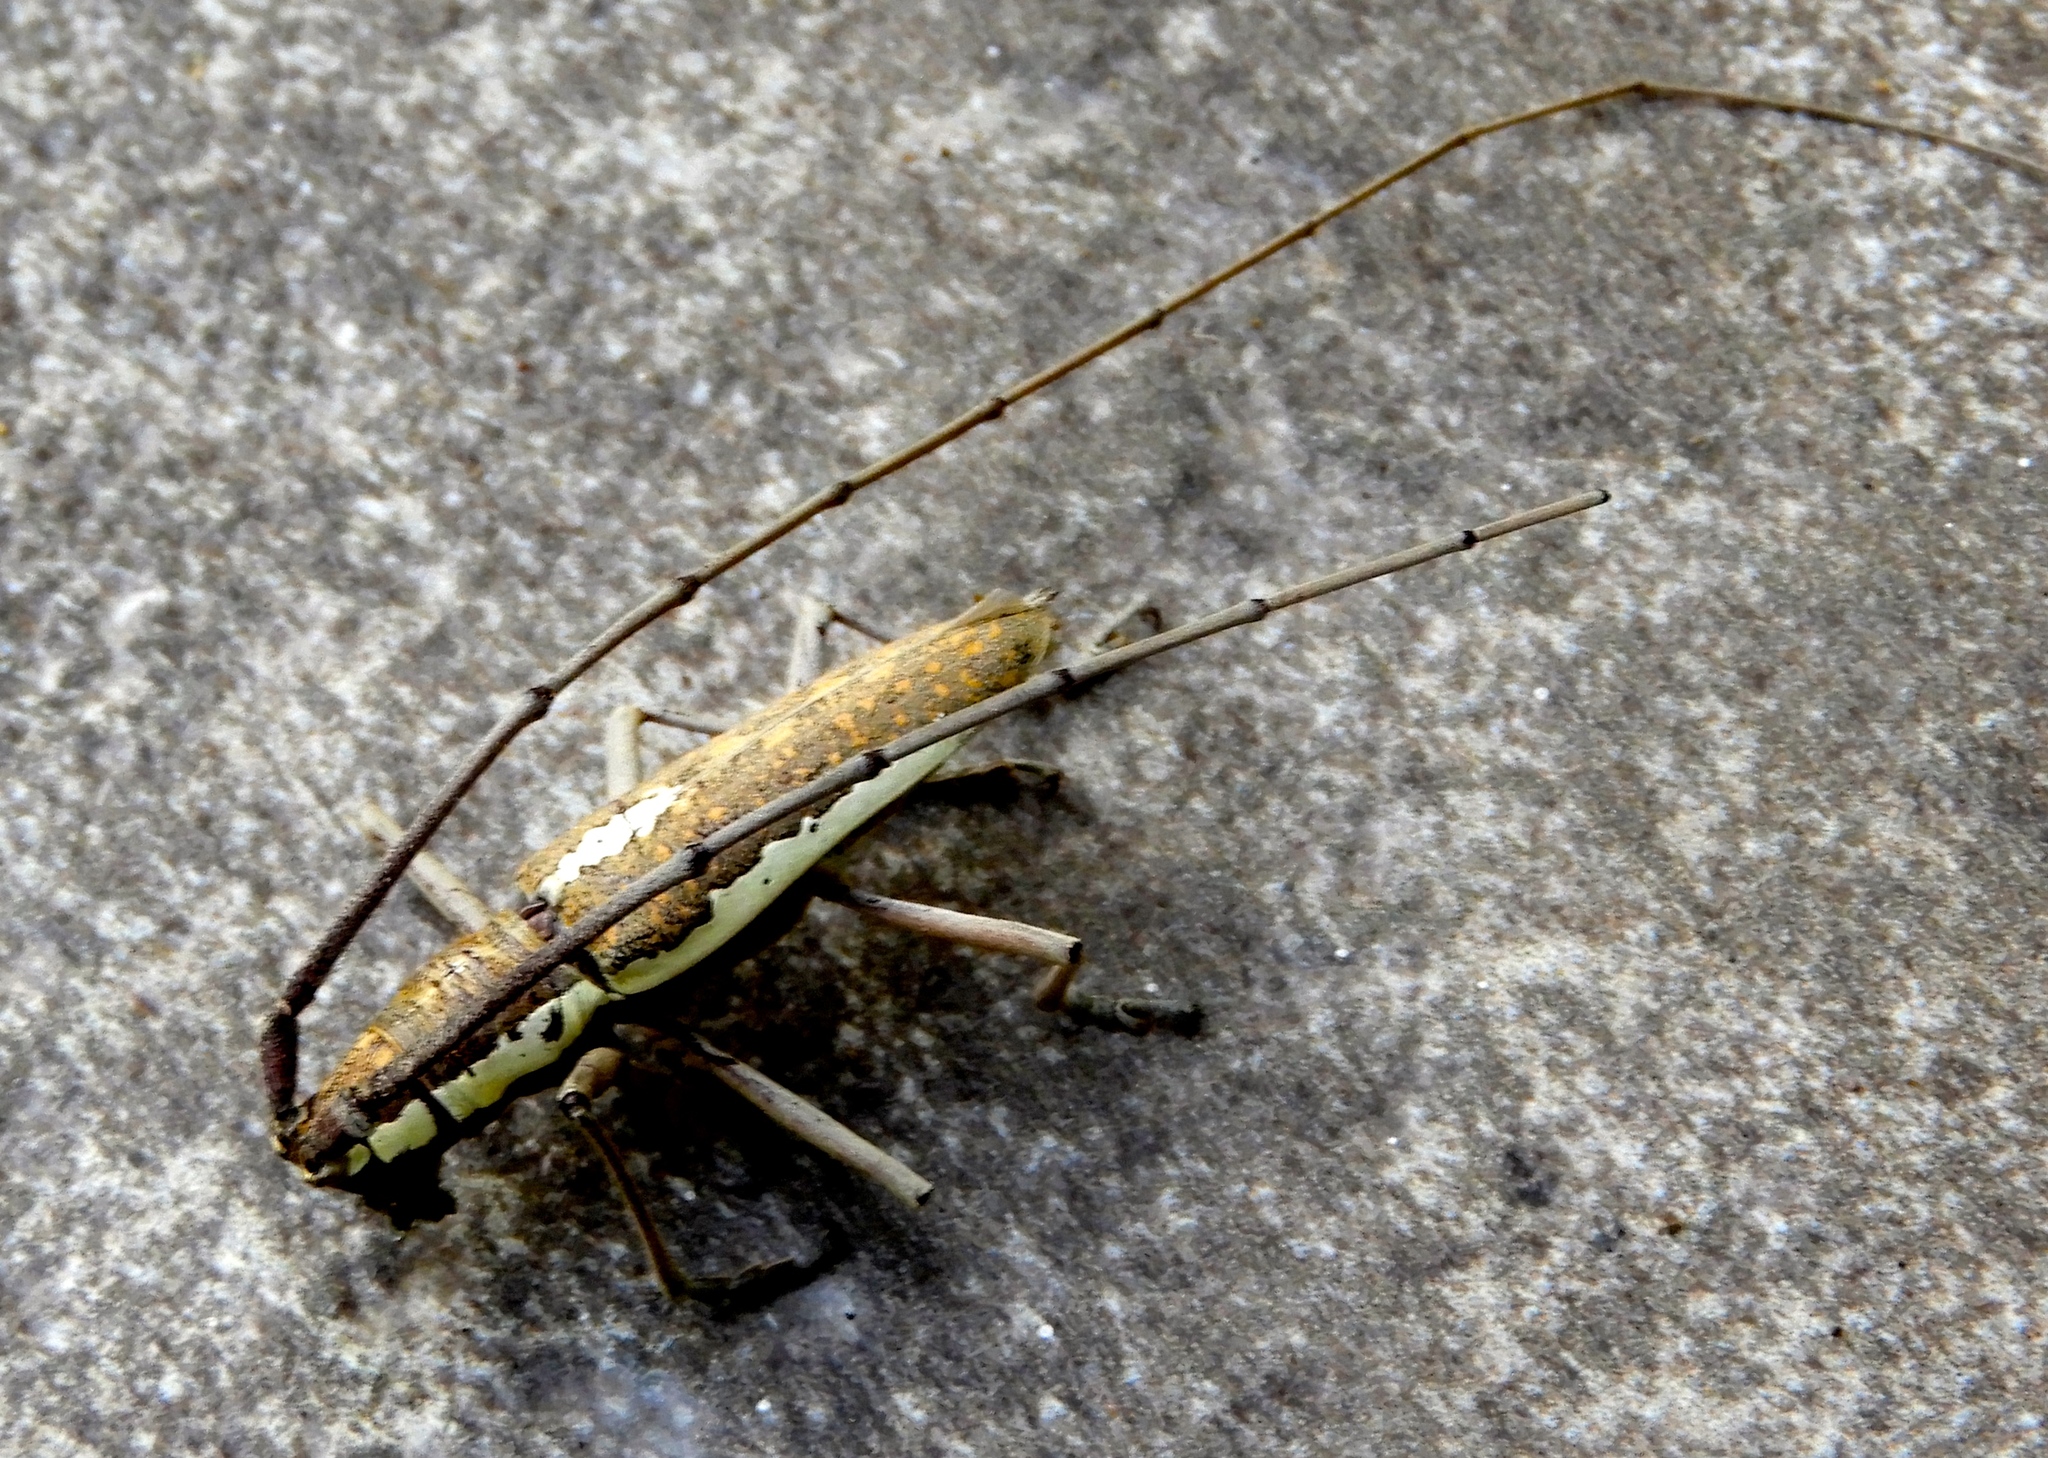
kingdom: Animalia
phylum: Arthropoda
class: Insecta
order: Coleoptera
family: Cerambycidae
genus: Neoptychodes
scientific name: Neoptychodes trilineatus
